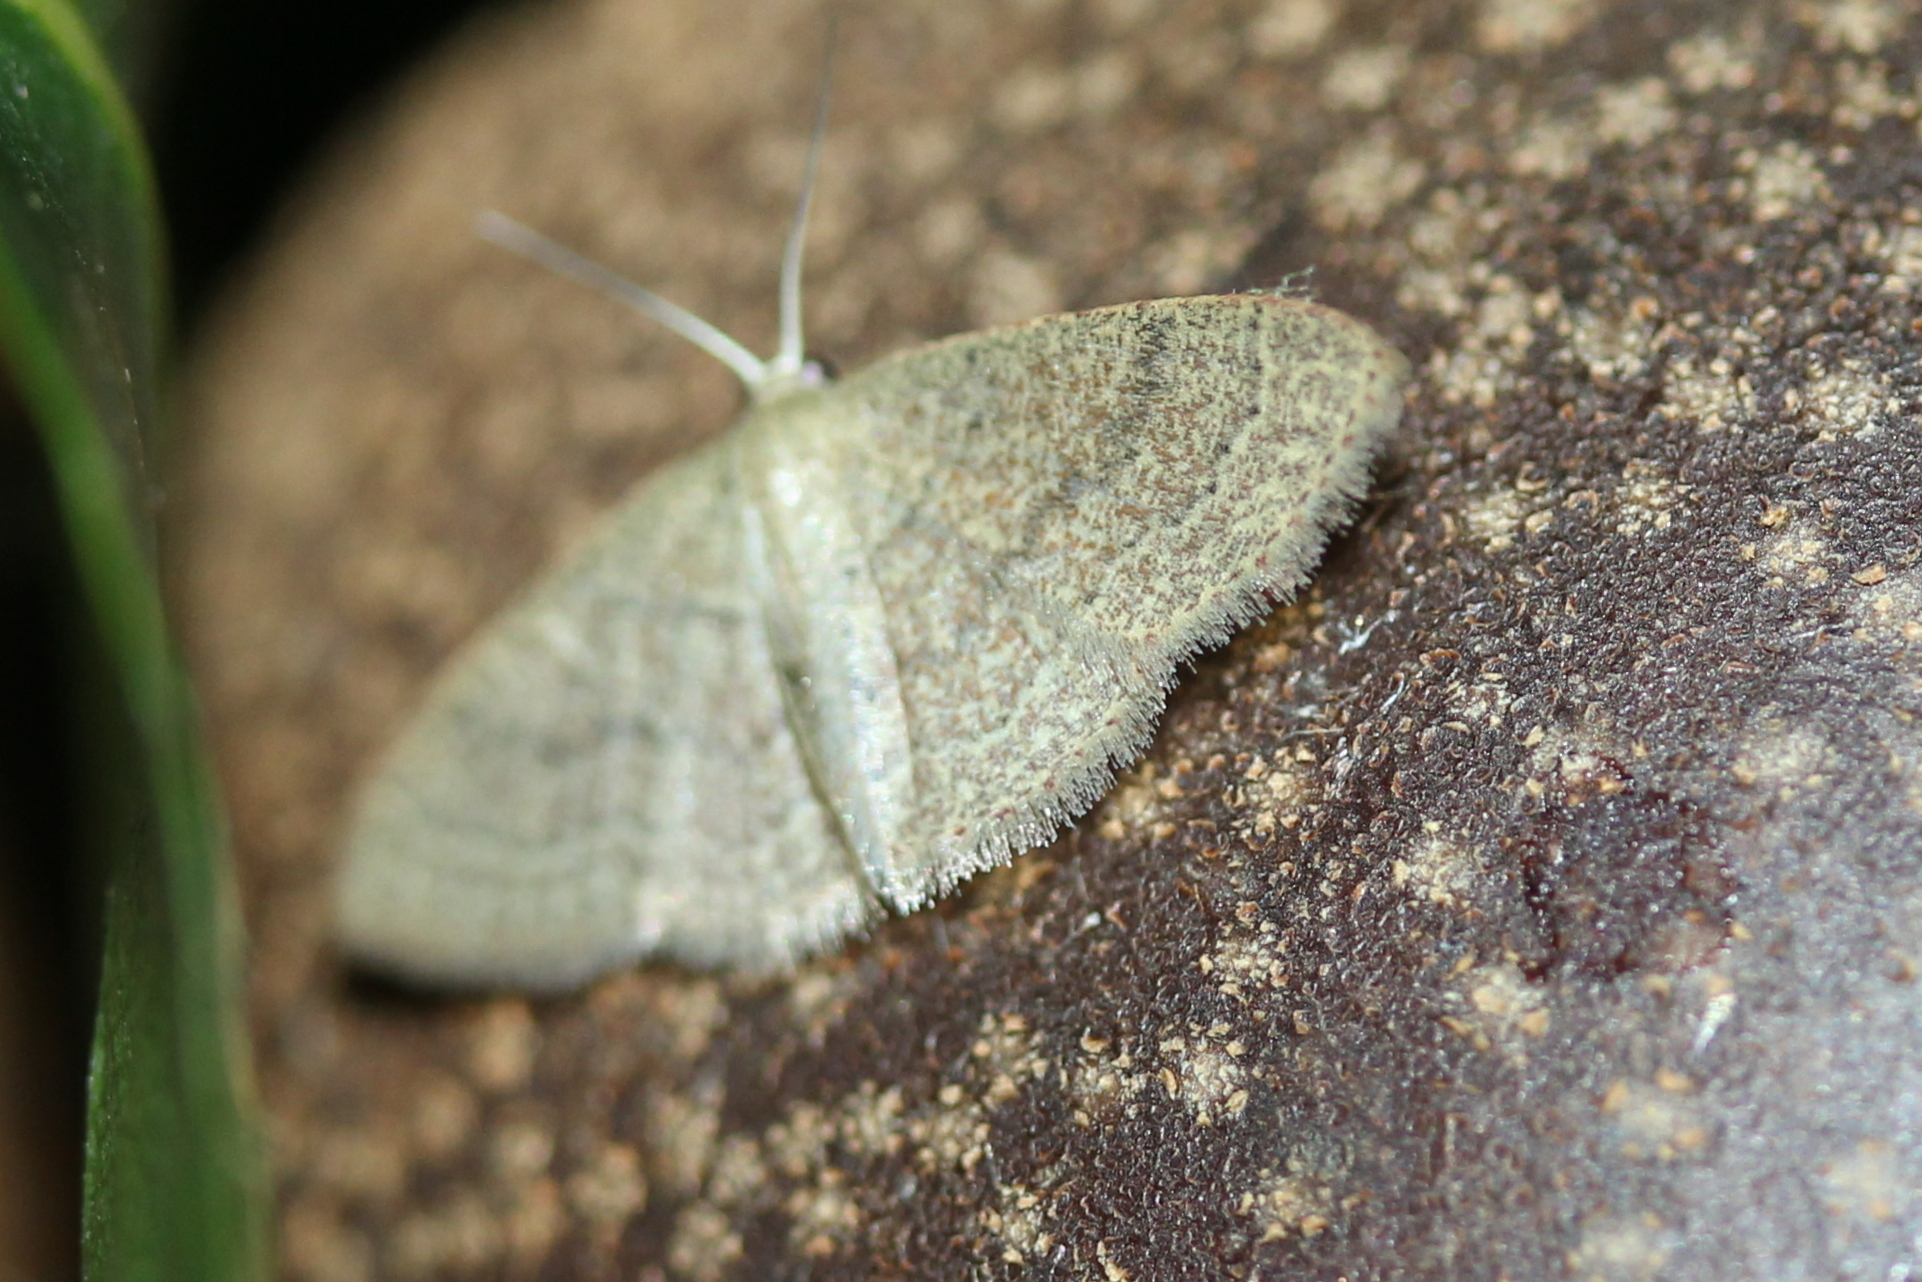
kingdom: Animalia
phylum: Arthropoda
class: Insecta
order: Lepidoptera
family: Geometridae
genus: Pleuroprucha
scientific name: Pleuroprucha insulsaria
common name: Common tan wave
